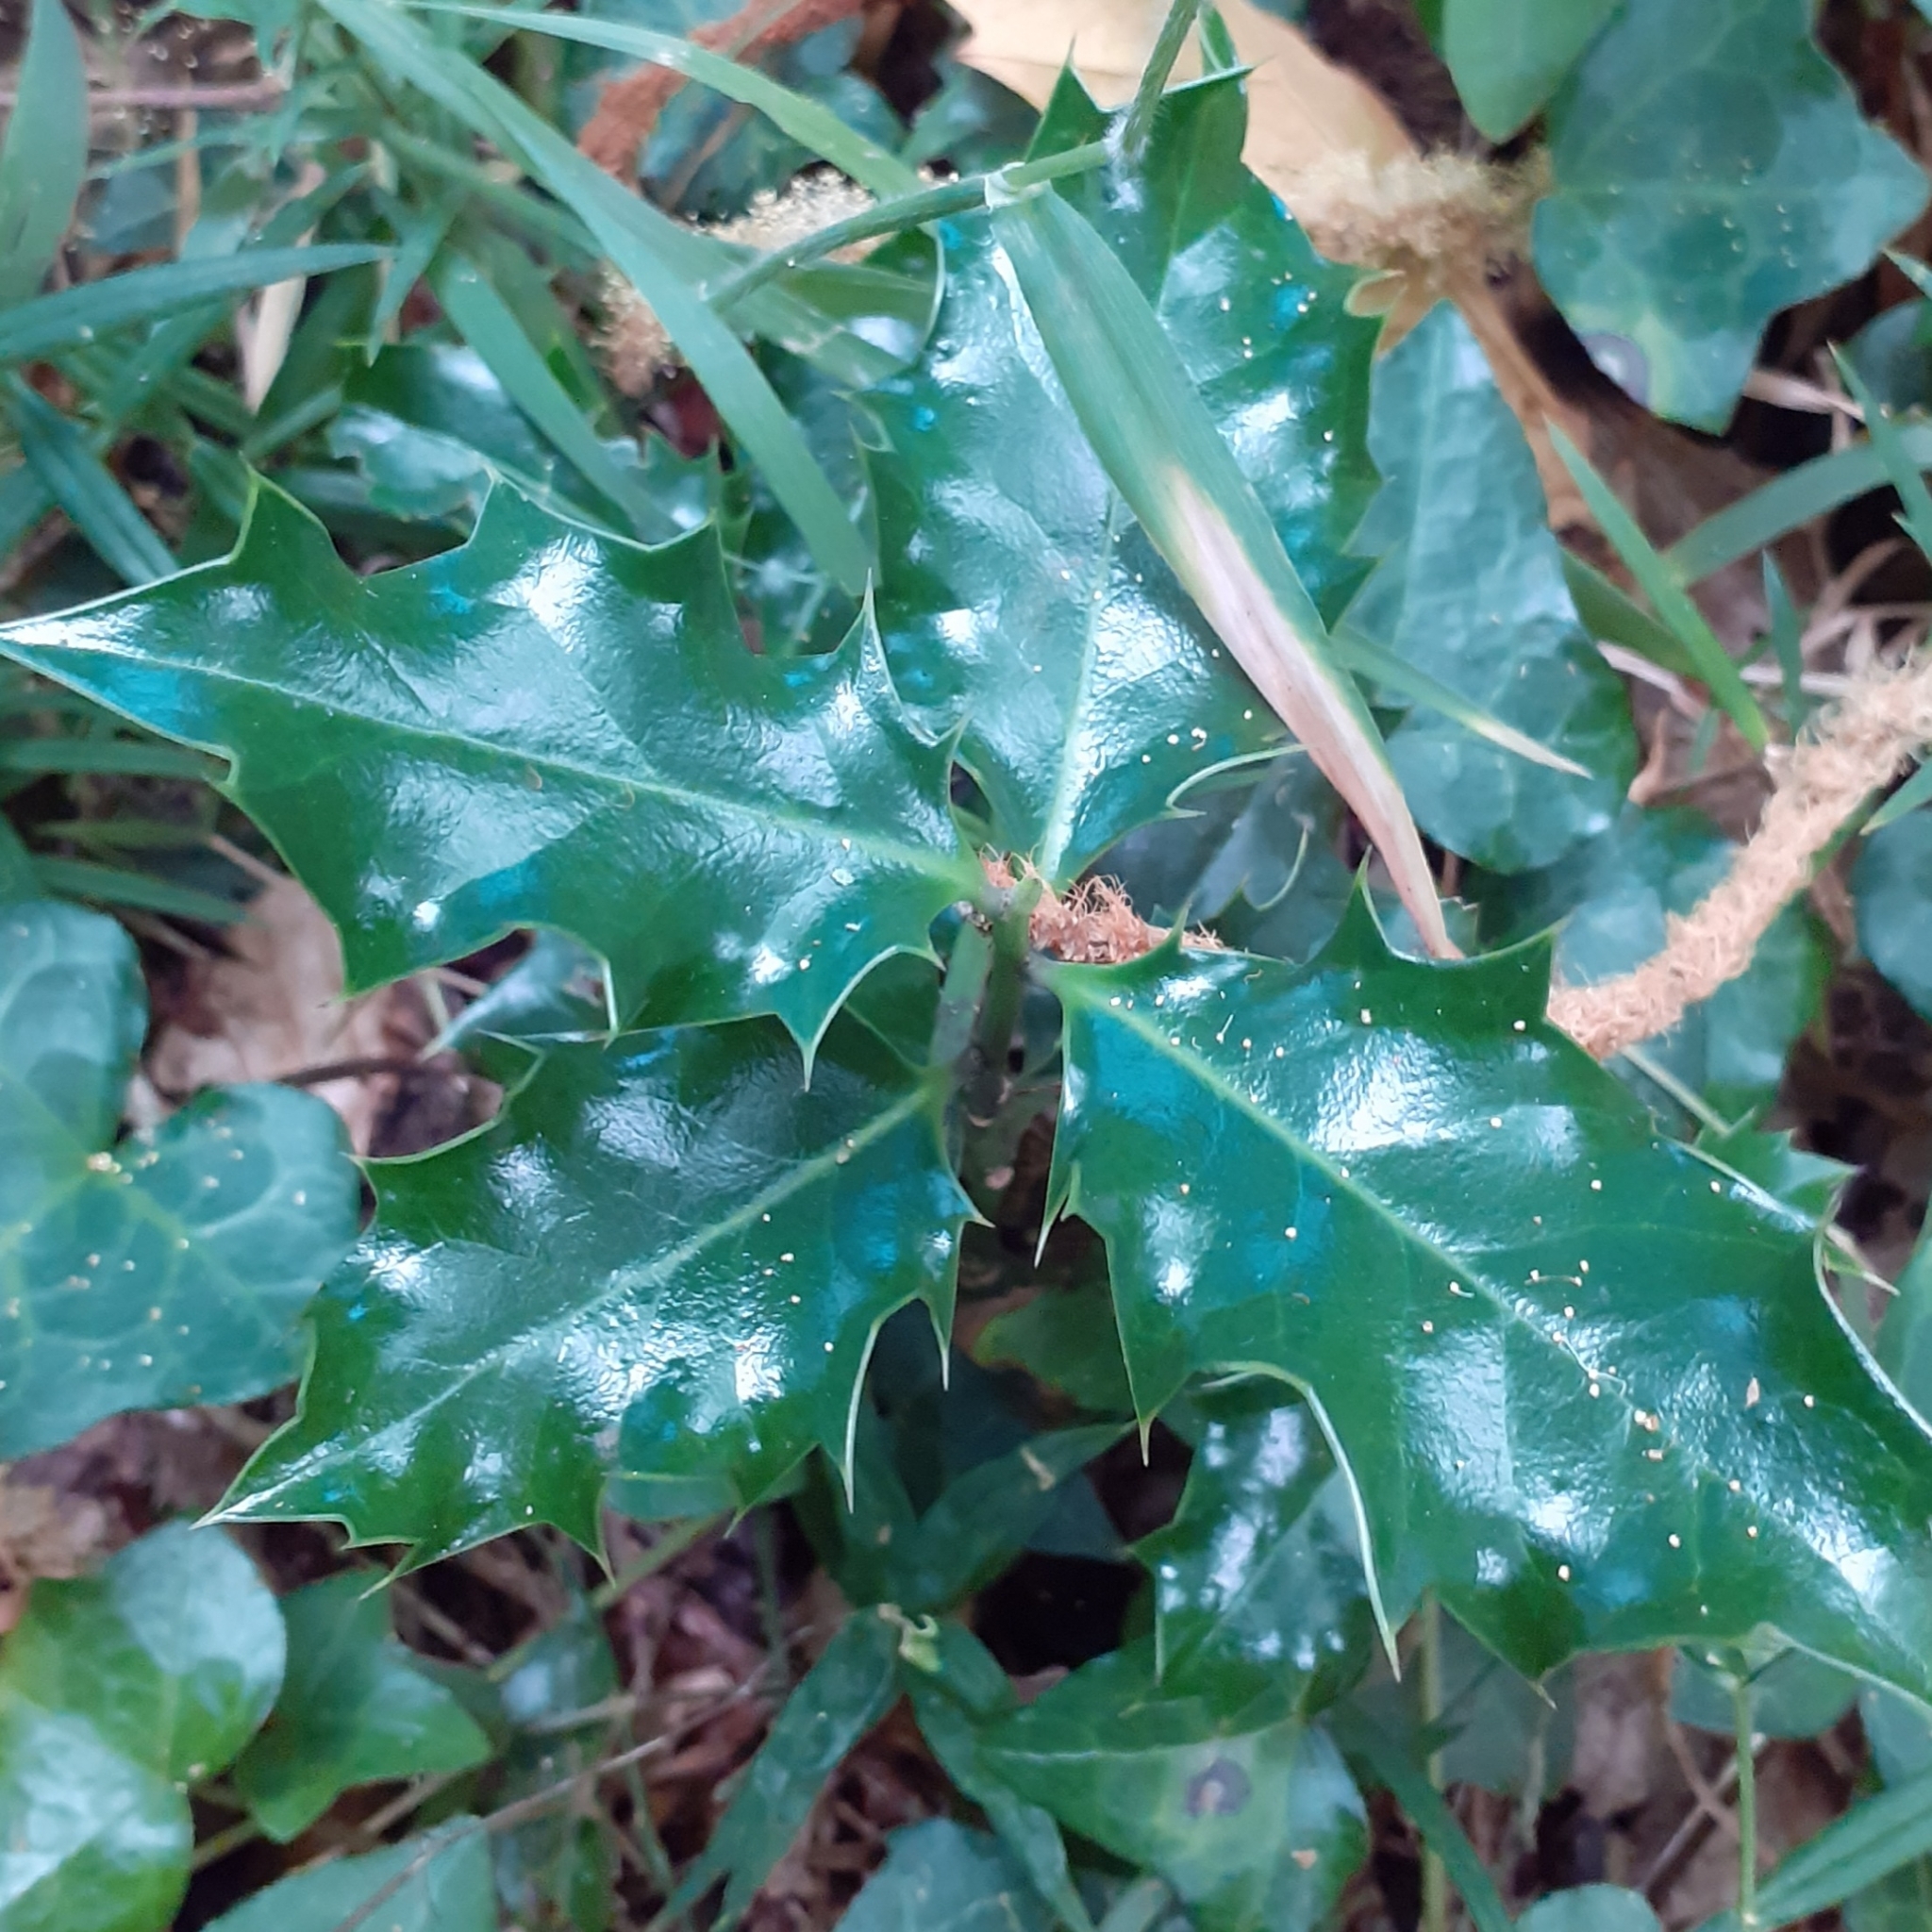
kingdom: Plantae
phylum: Tracheophyta
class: Magnoliopsida
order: Aquifoliales
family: Aquifoliaceae
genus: Ilex
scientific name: Ilex aquifolium
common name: English holly
